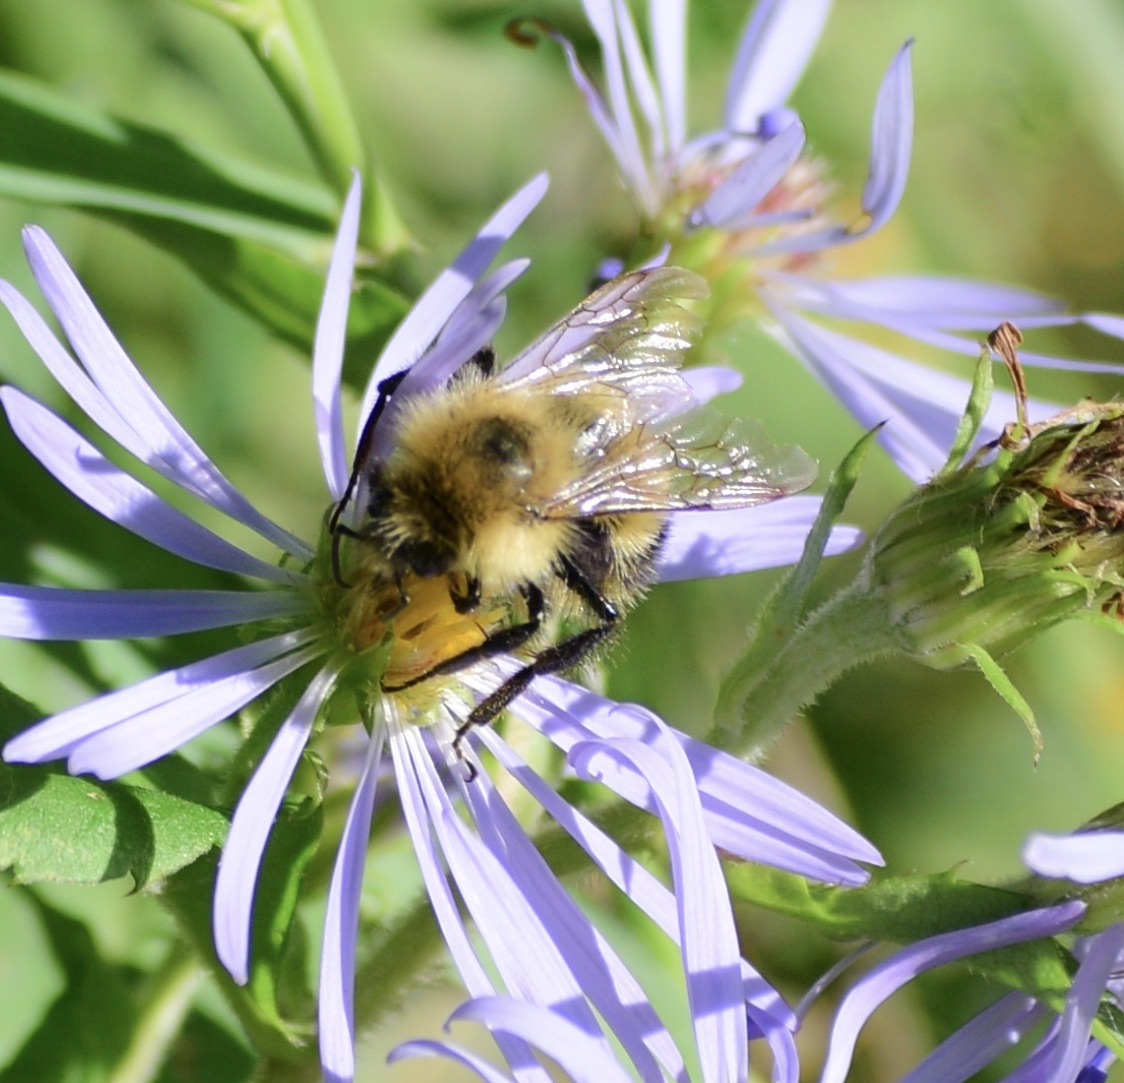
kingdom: Animalia
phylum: Arthropoda
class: Insecta
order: Hymenoptera
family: Apidae
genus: Pyrobombus
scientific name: Pyrobombus
